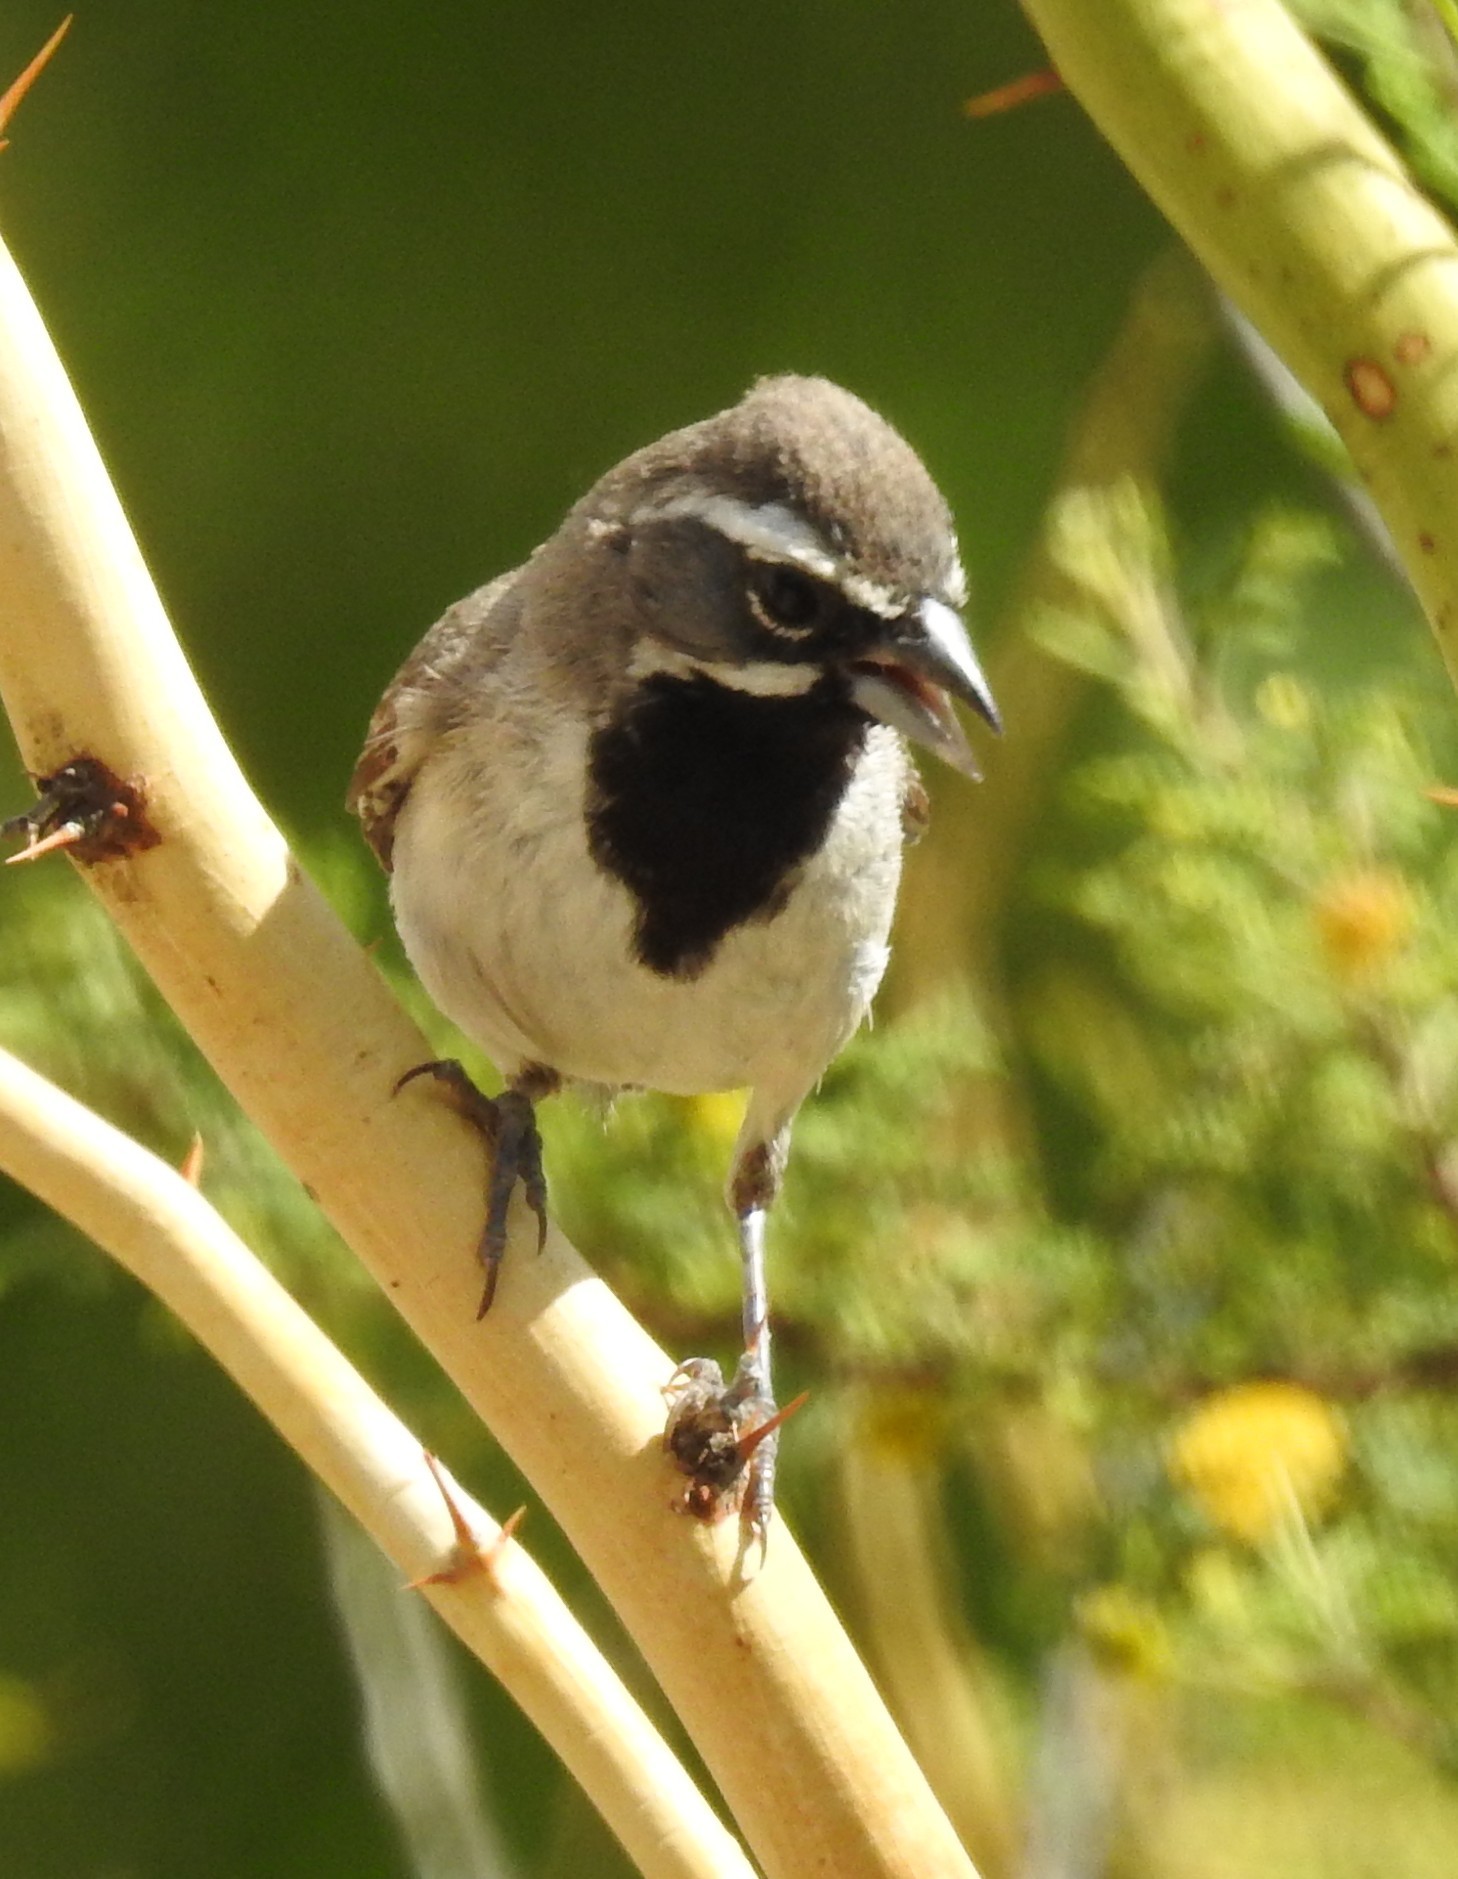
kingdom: Animalia
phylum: Chordata
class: Aves
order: Passeriformes
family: Passerellidae
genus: Amphispiza
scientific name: Amphispiza bilineata
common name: Black-throated sparrow
